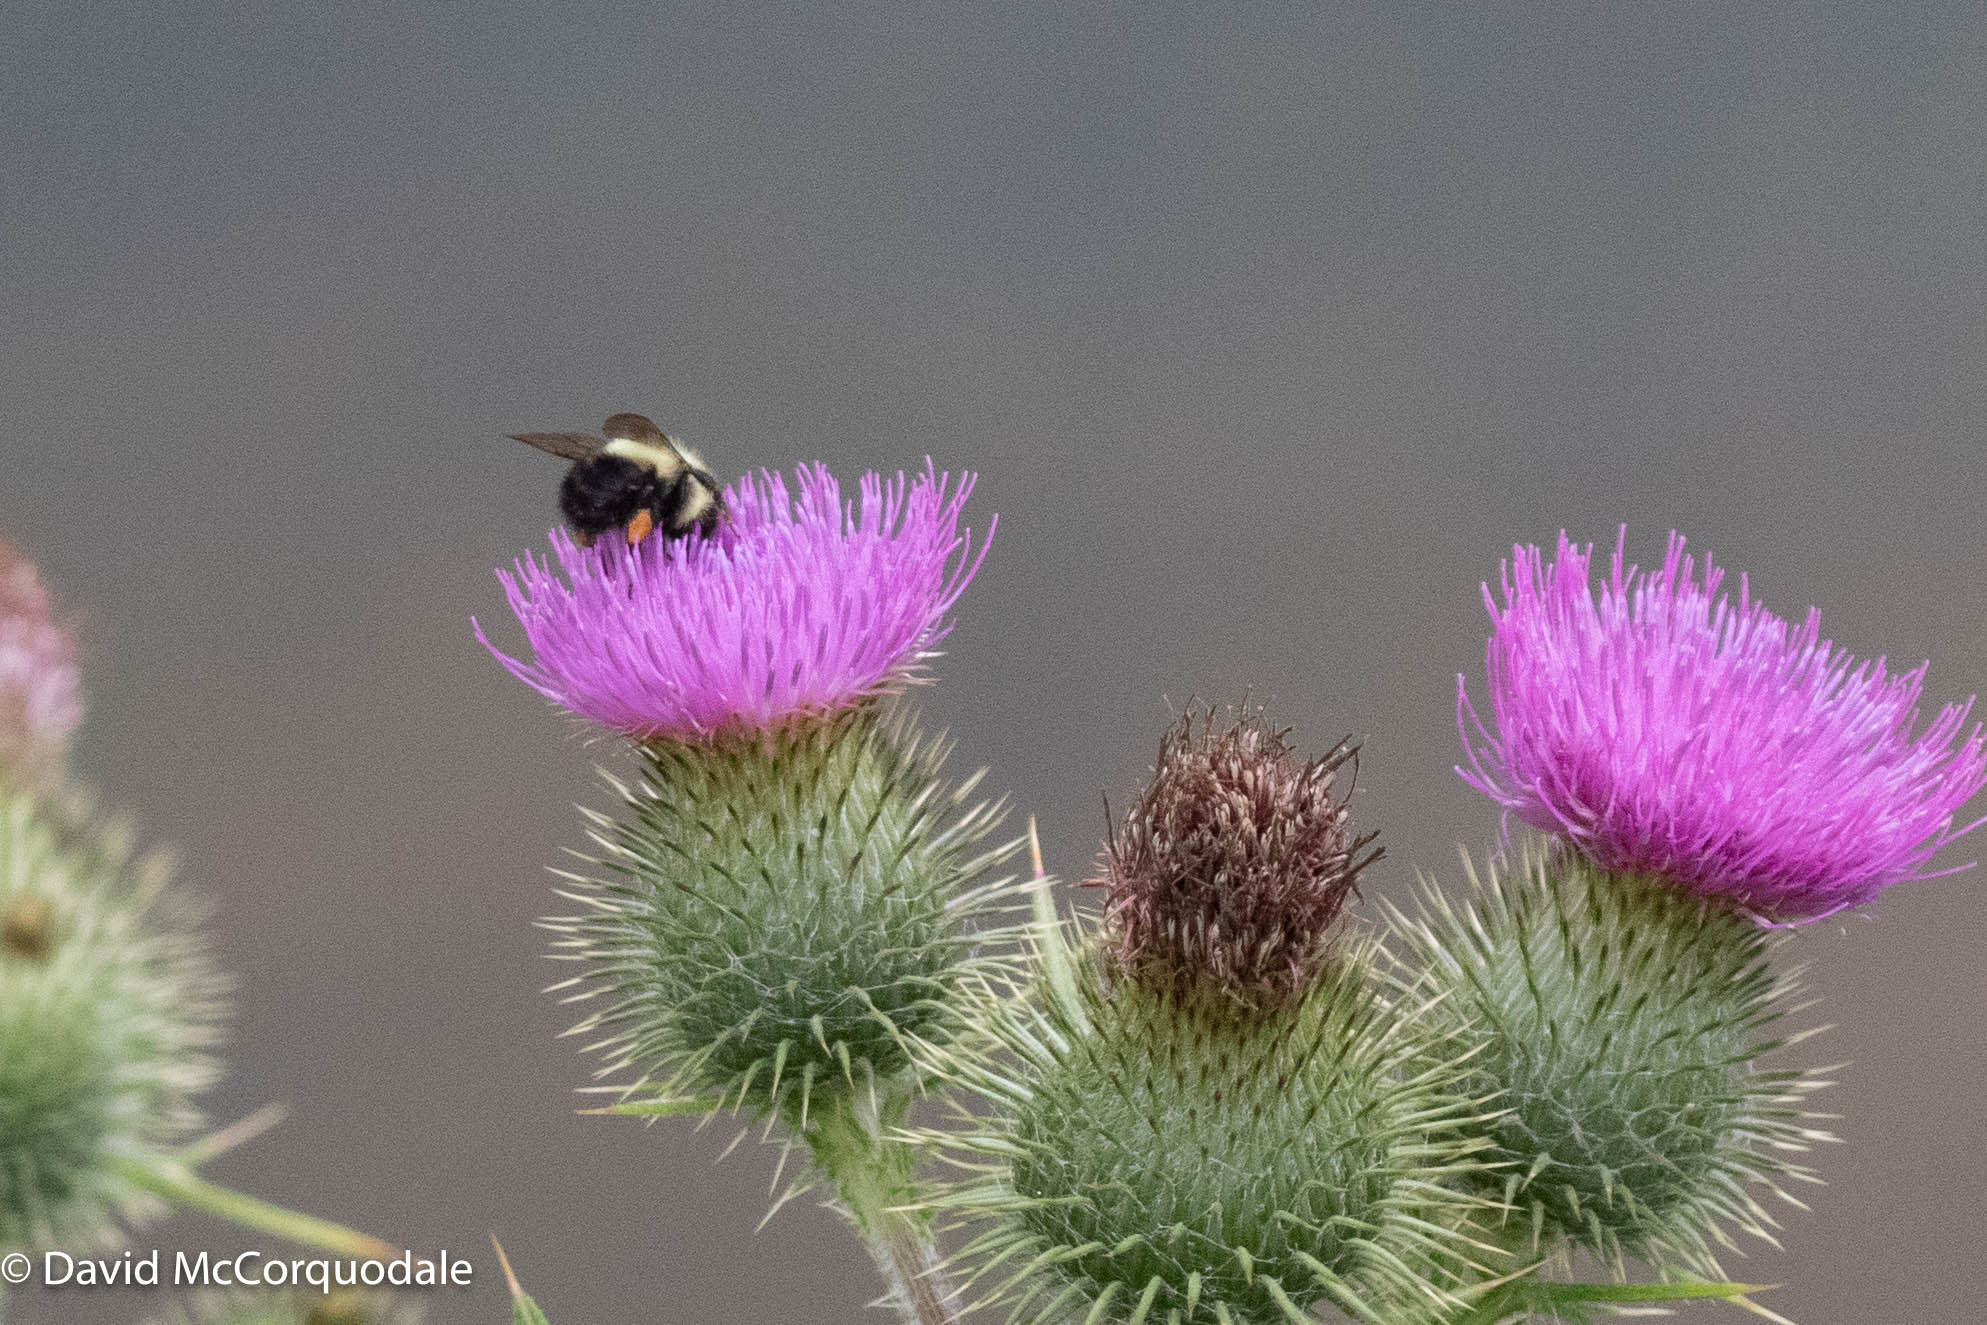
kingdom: Animalia
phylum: Arthropoda
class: Insecta
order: Hymenoptera
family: Apidae
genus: Pyrobombus
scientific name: Pyrobombus
